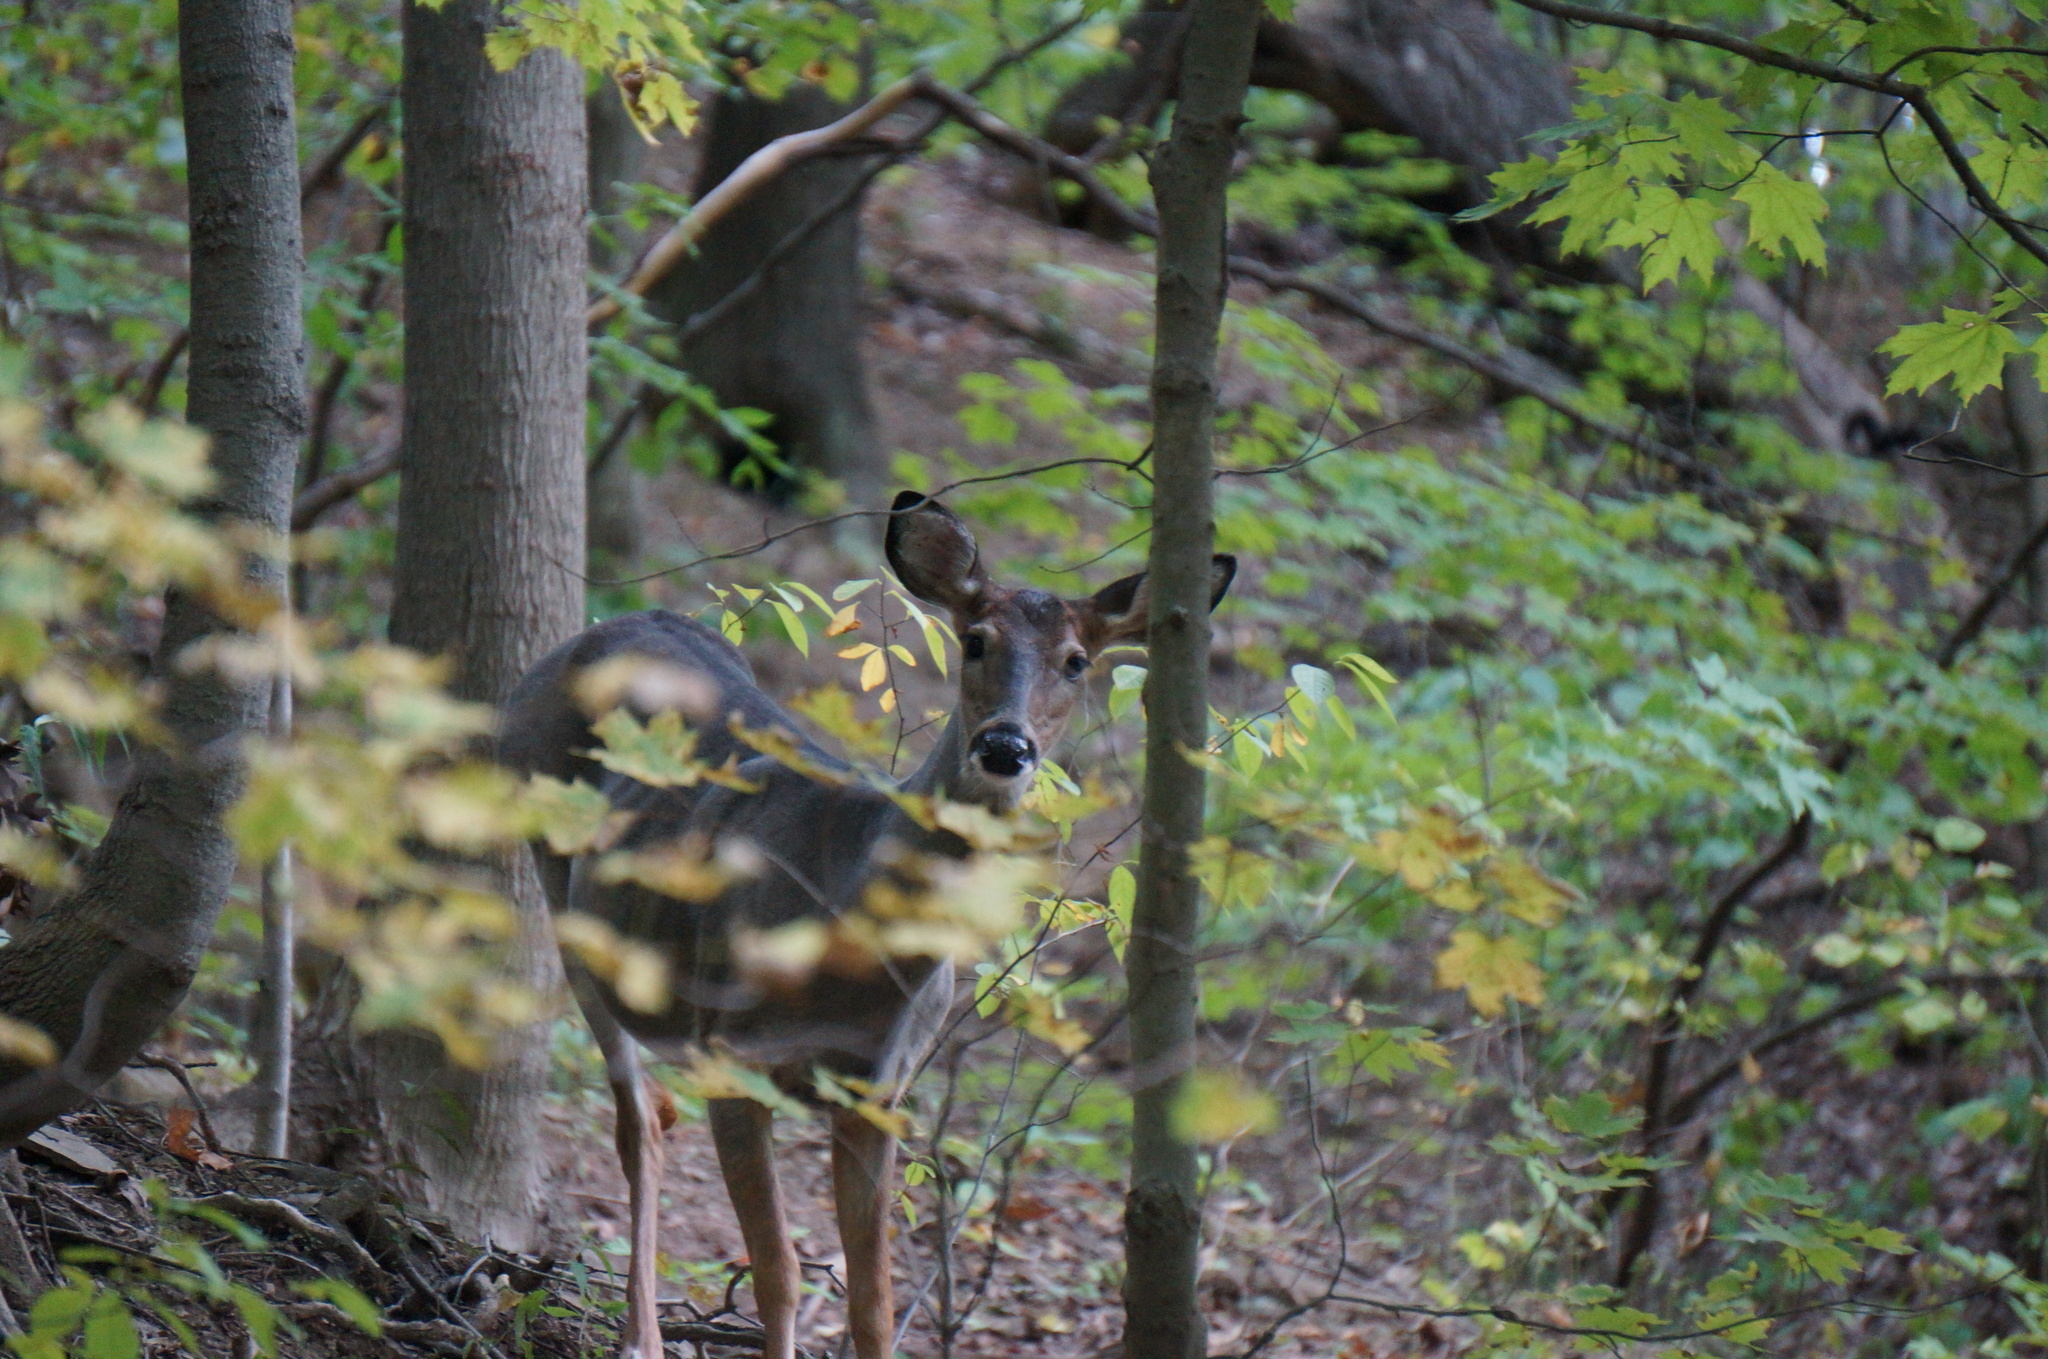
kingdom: Animalia
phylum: Chordata
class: Mammalia
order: Artiodactyla
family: Cervidae
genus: Odocoileus
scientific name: Odocoileus virginianus
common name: White-tailed deer
